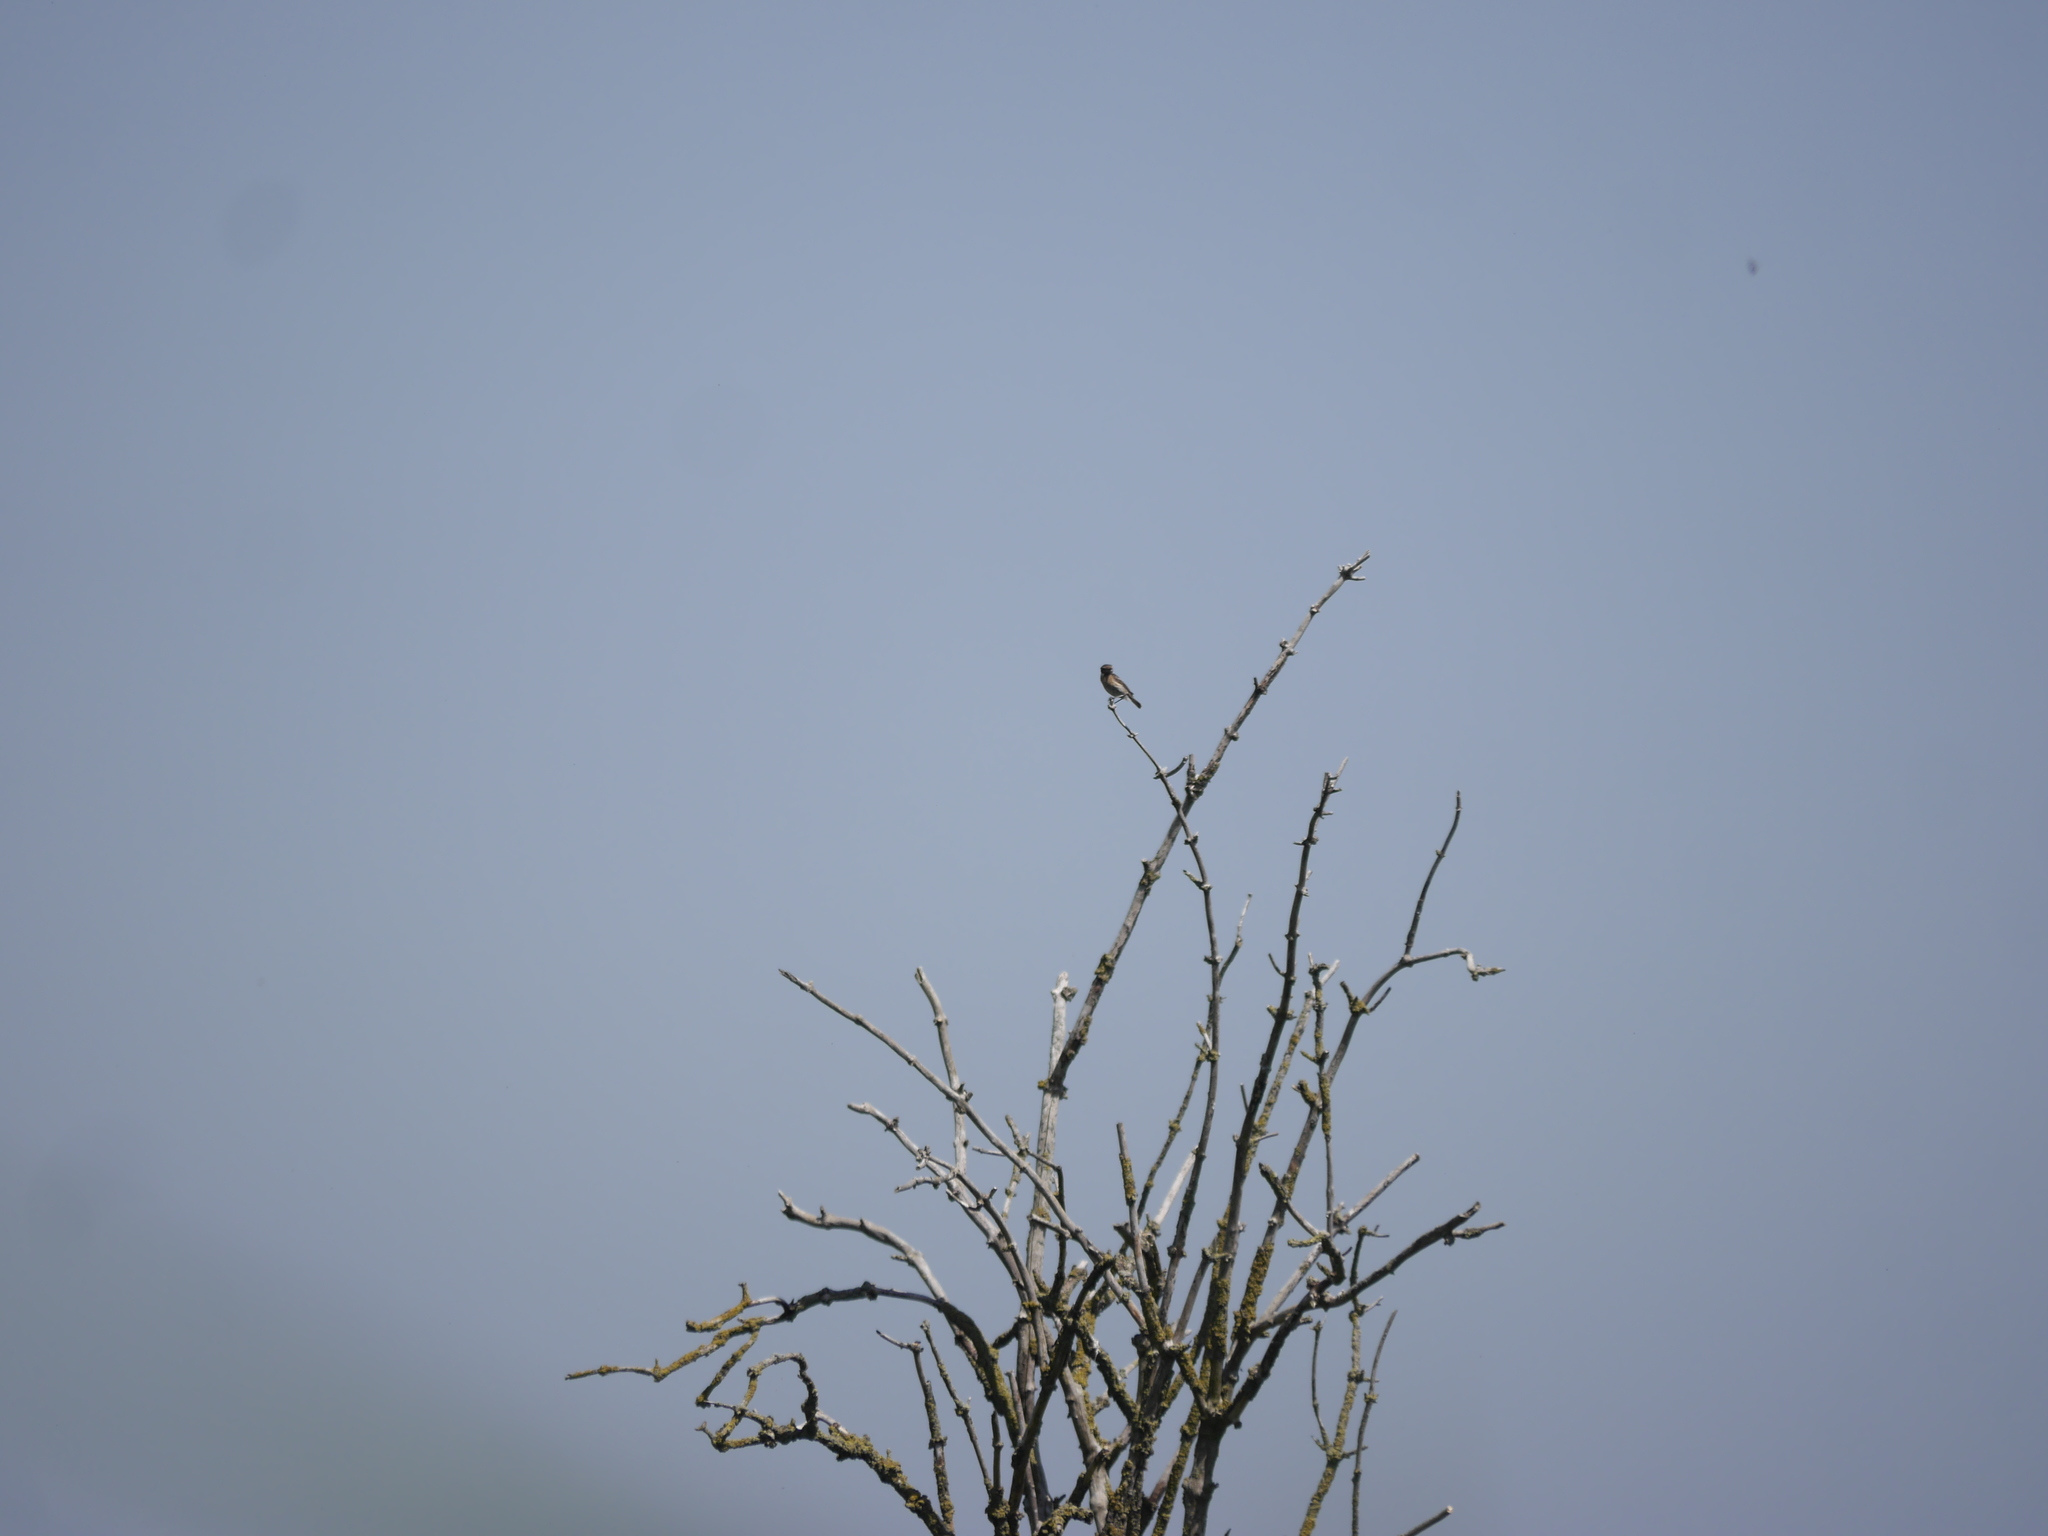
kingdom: Animalia
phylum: Chordata
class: Aves
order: Passeriformes
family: Muscicapidae
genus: Saxicola
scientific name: Saxicola rubicola
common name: European stonechat
